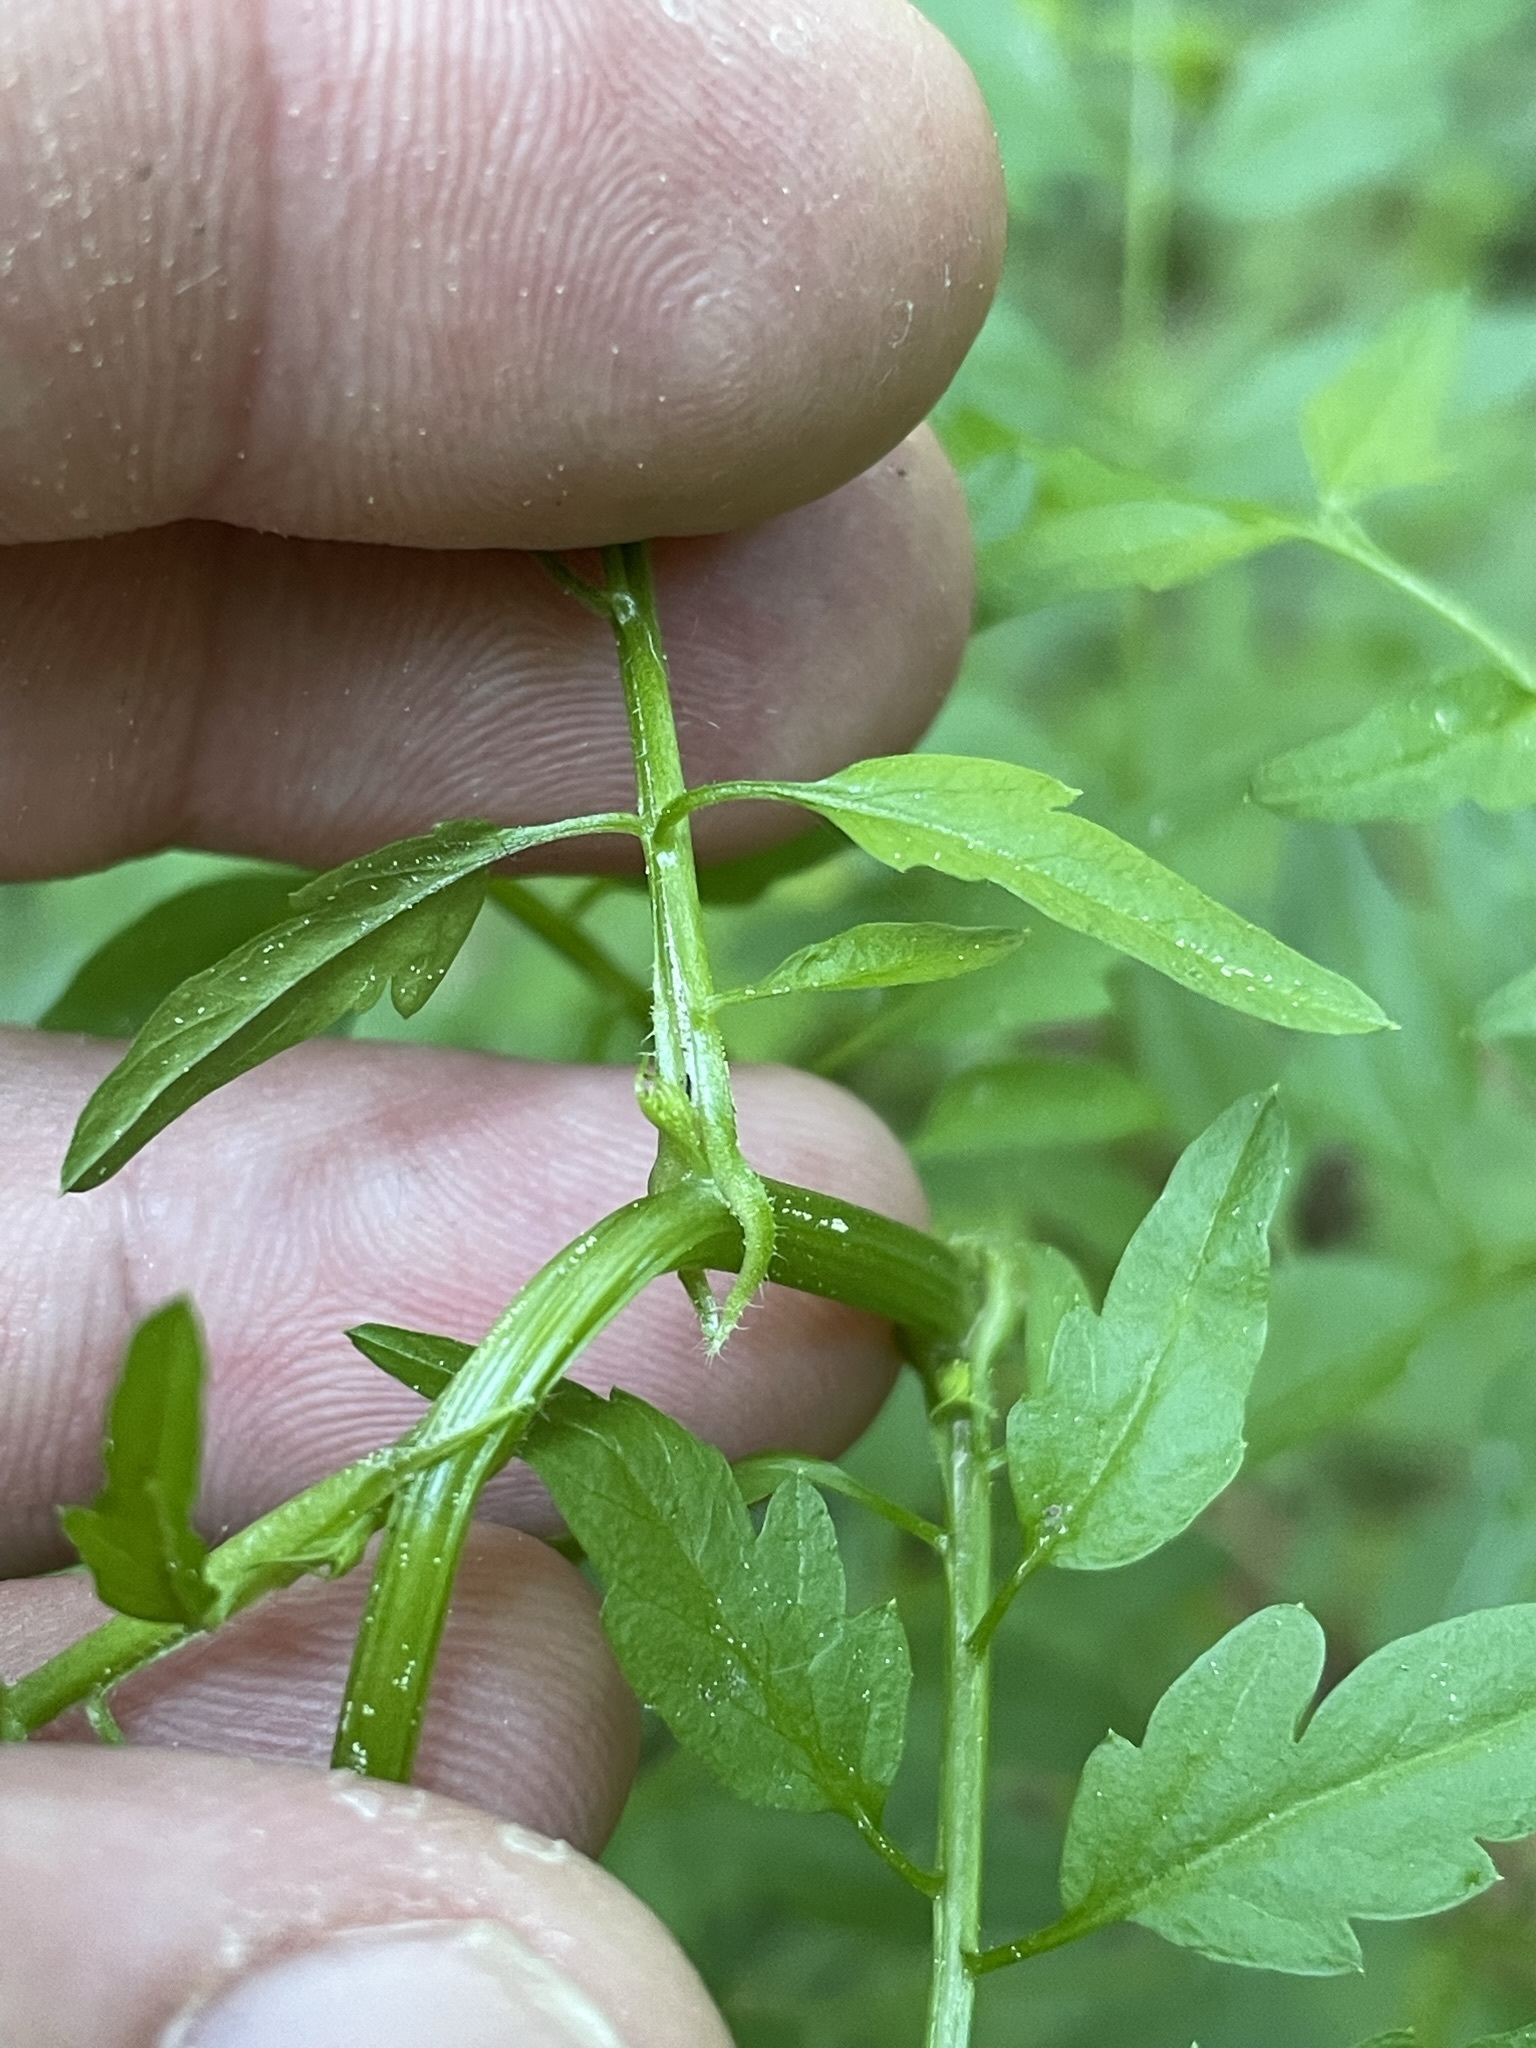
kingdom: Plantae
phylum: Tracheophyta
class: Magnoliopsida
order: Brassicales
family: Brassicaceae
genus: Cardamine
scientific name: Cardamine impatiens
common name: Narrow-leaved bitter-cress
